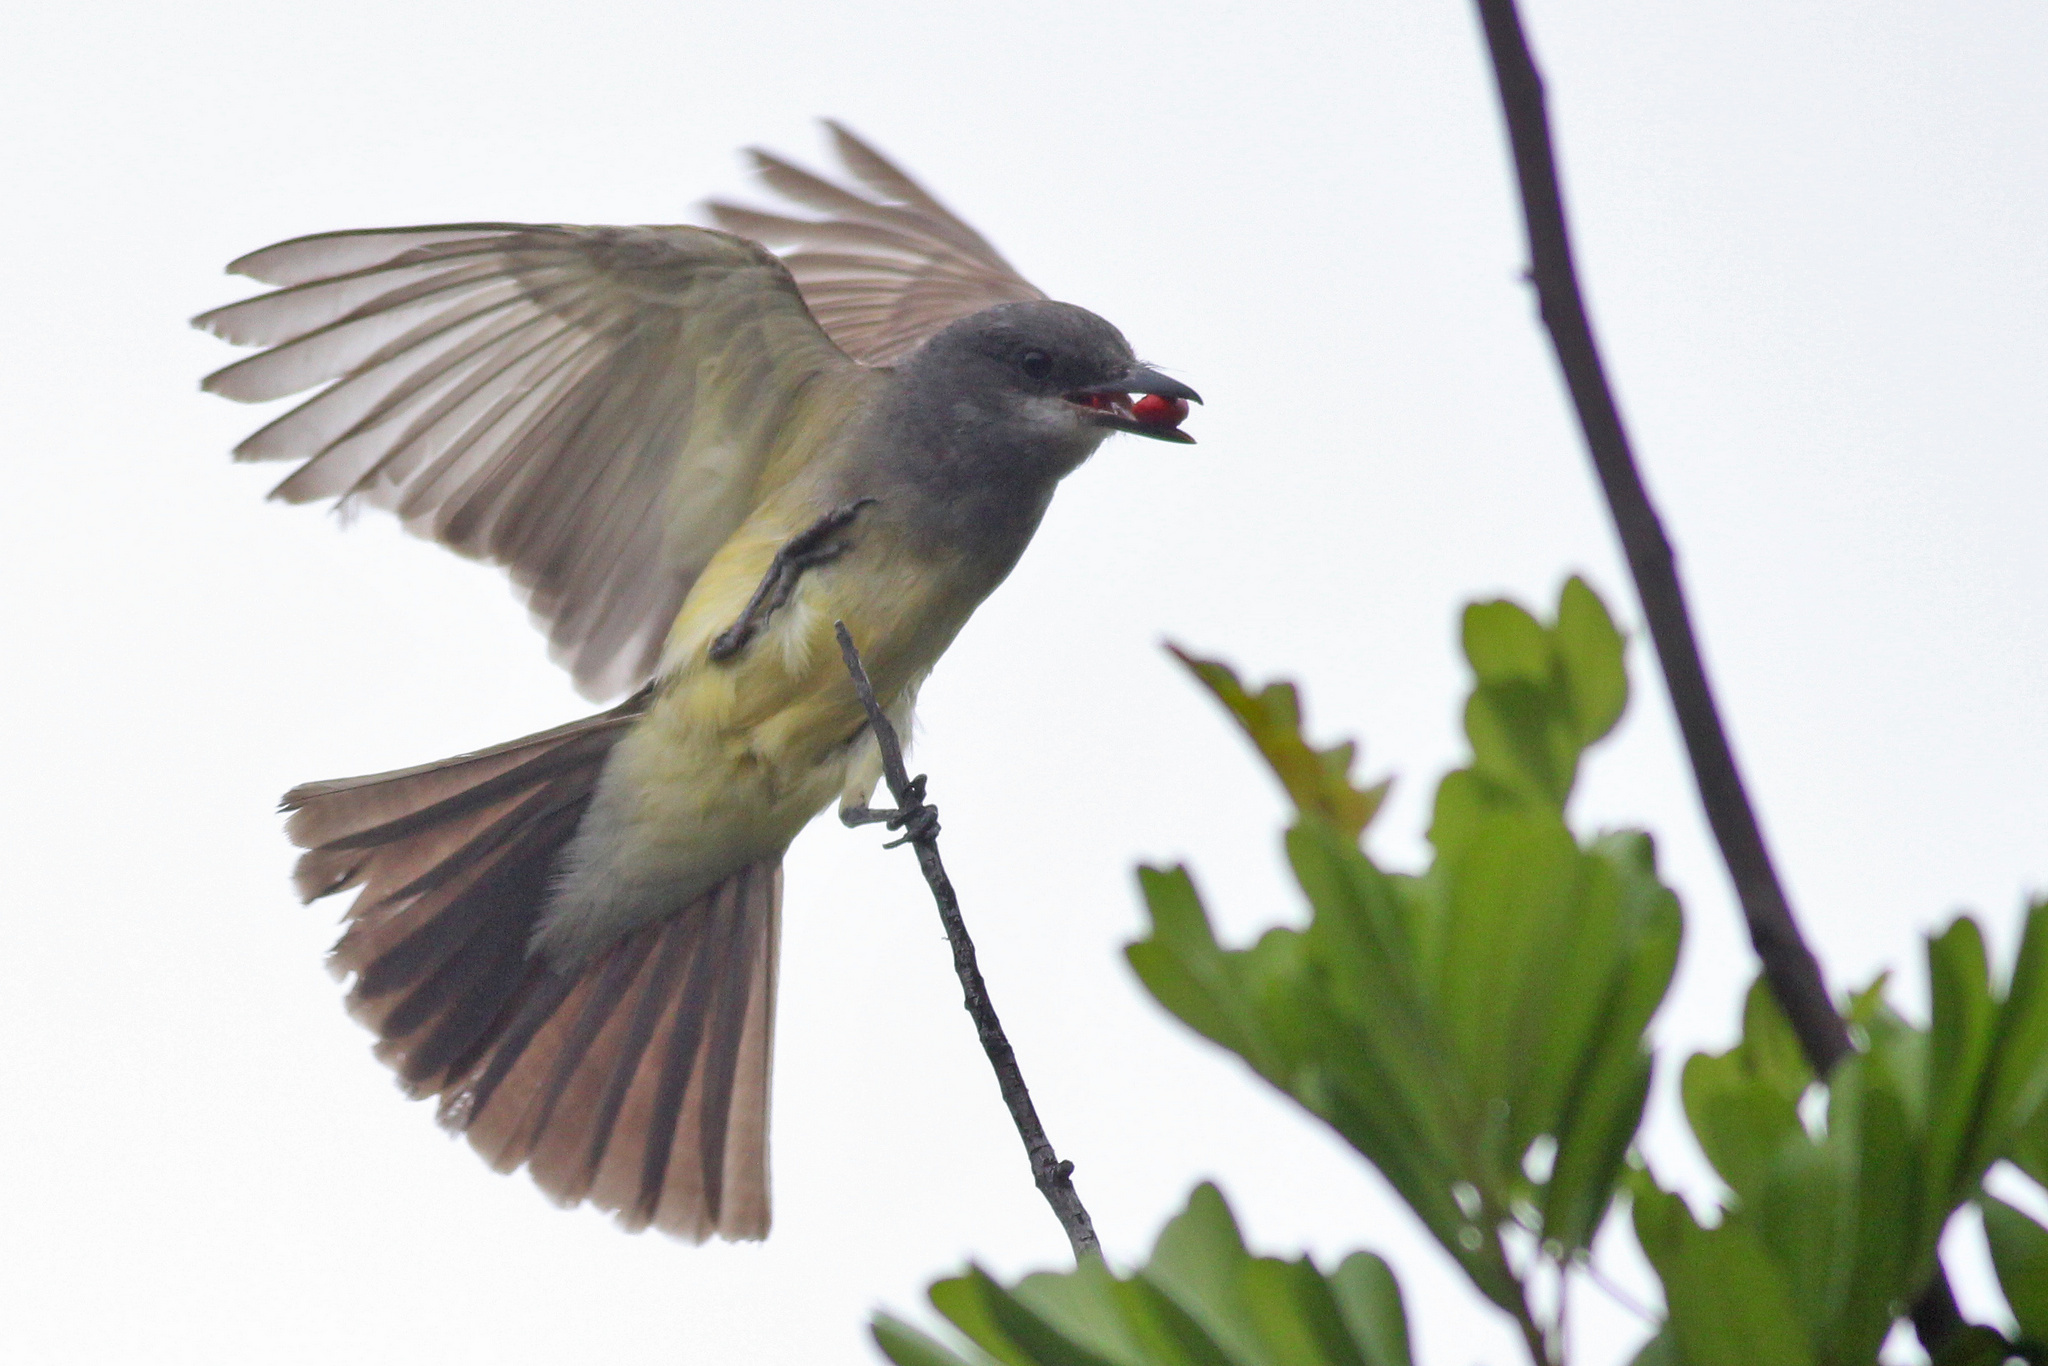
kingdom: Animalia
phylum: Chordata
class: Aves
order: Passeriformes
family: Tyrannidae
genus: Tyrannus
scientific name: Tyrannus vociferans
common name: Cassin's kingbird
